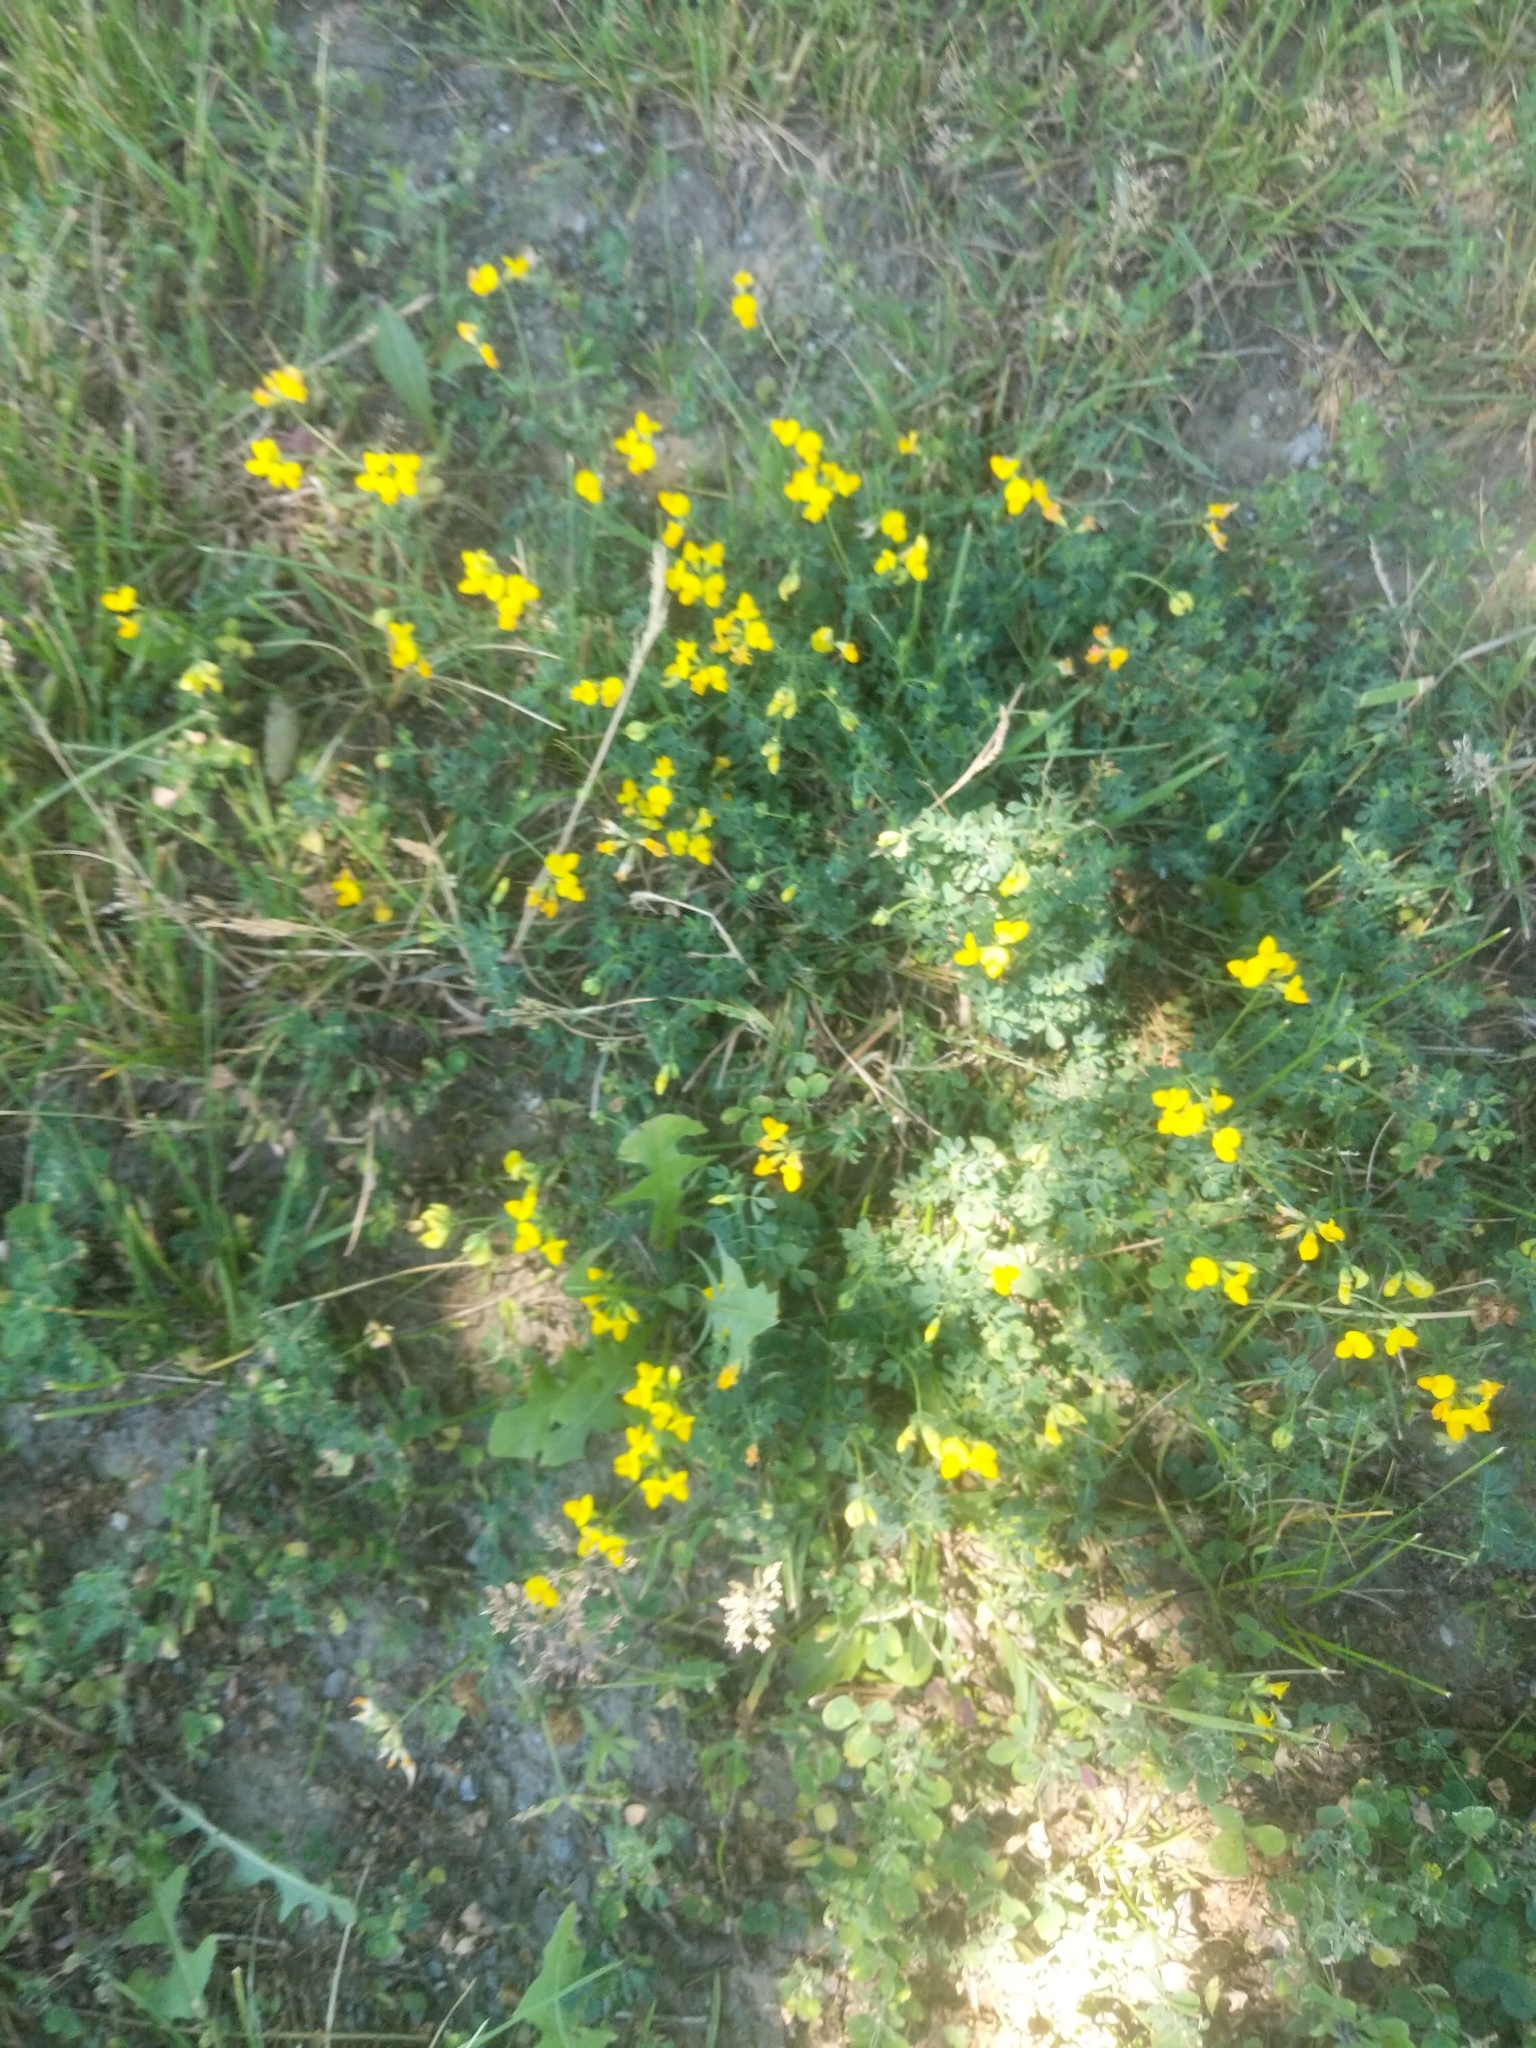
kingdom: Plantae
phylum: Tracheophyta
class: Magnoliopsida
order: Fabales
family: Fabaceae
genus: Lotus
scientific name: Lotus corniculatus
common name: Common bird's-foot-trefoil
